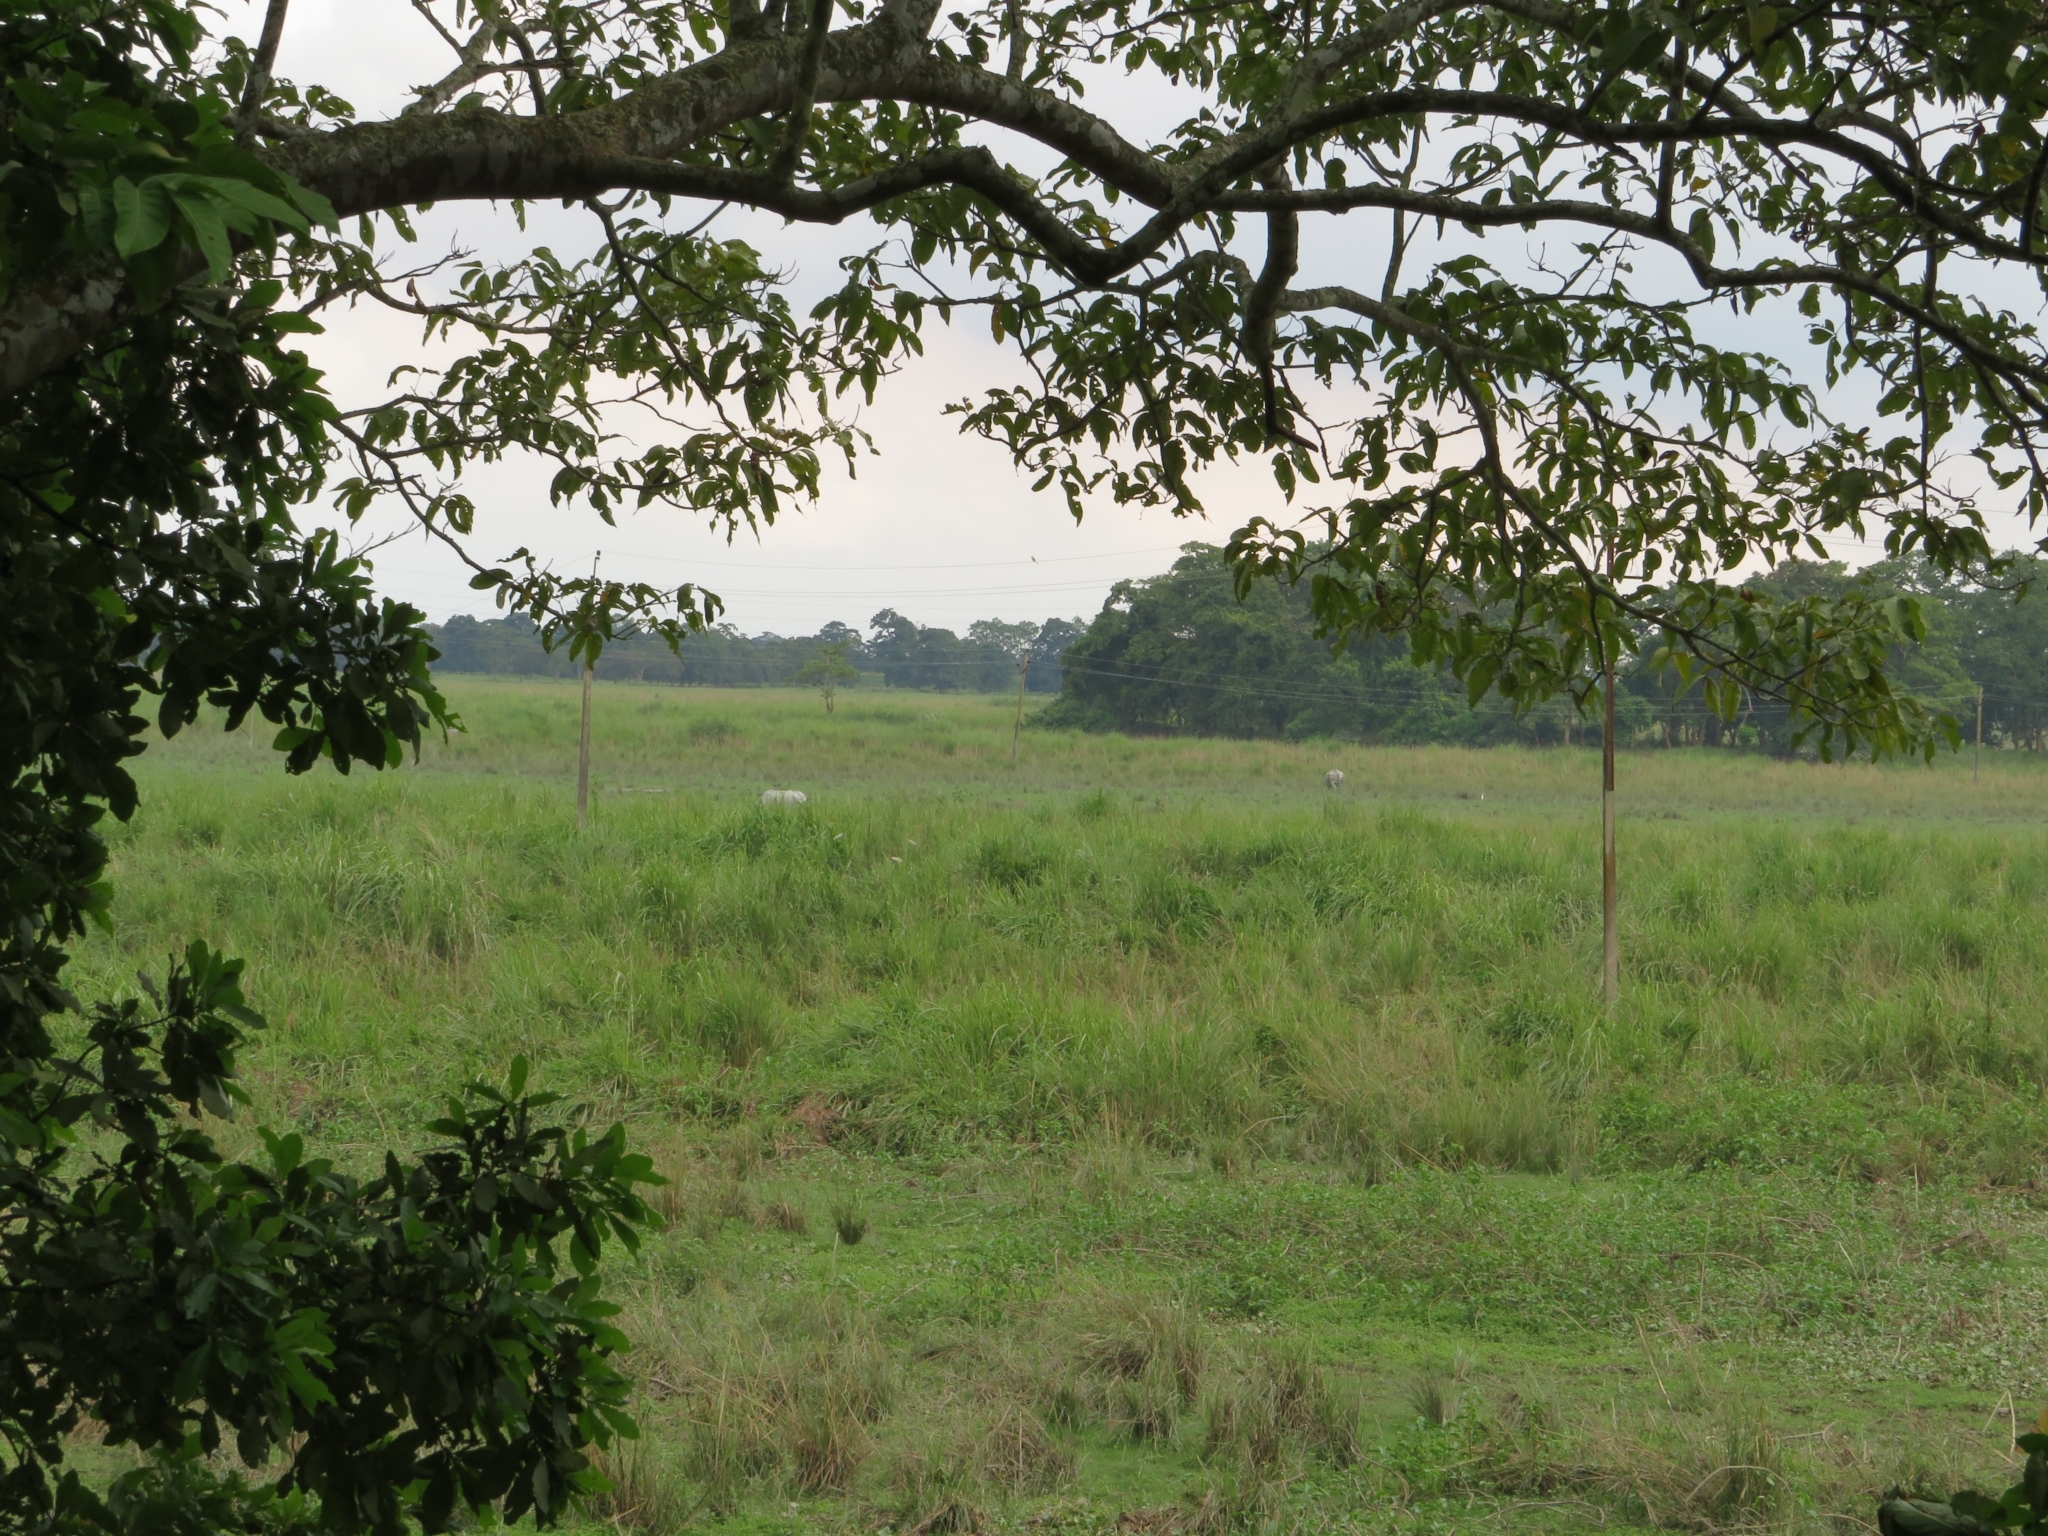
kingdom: Animalia
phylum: Chordata
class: Mammalia
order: Perissodactyla
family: Rhinocerotidae
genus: Rhinoceros
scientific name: Rhinoceros unicornis
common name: Indian rhinoceros
